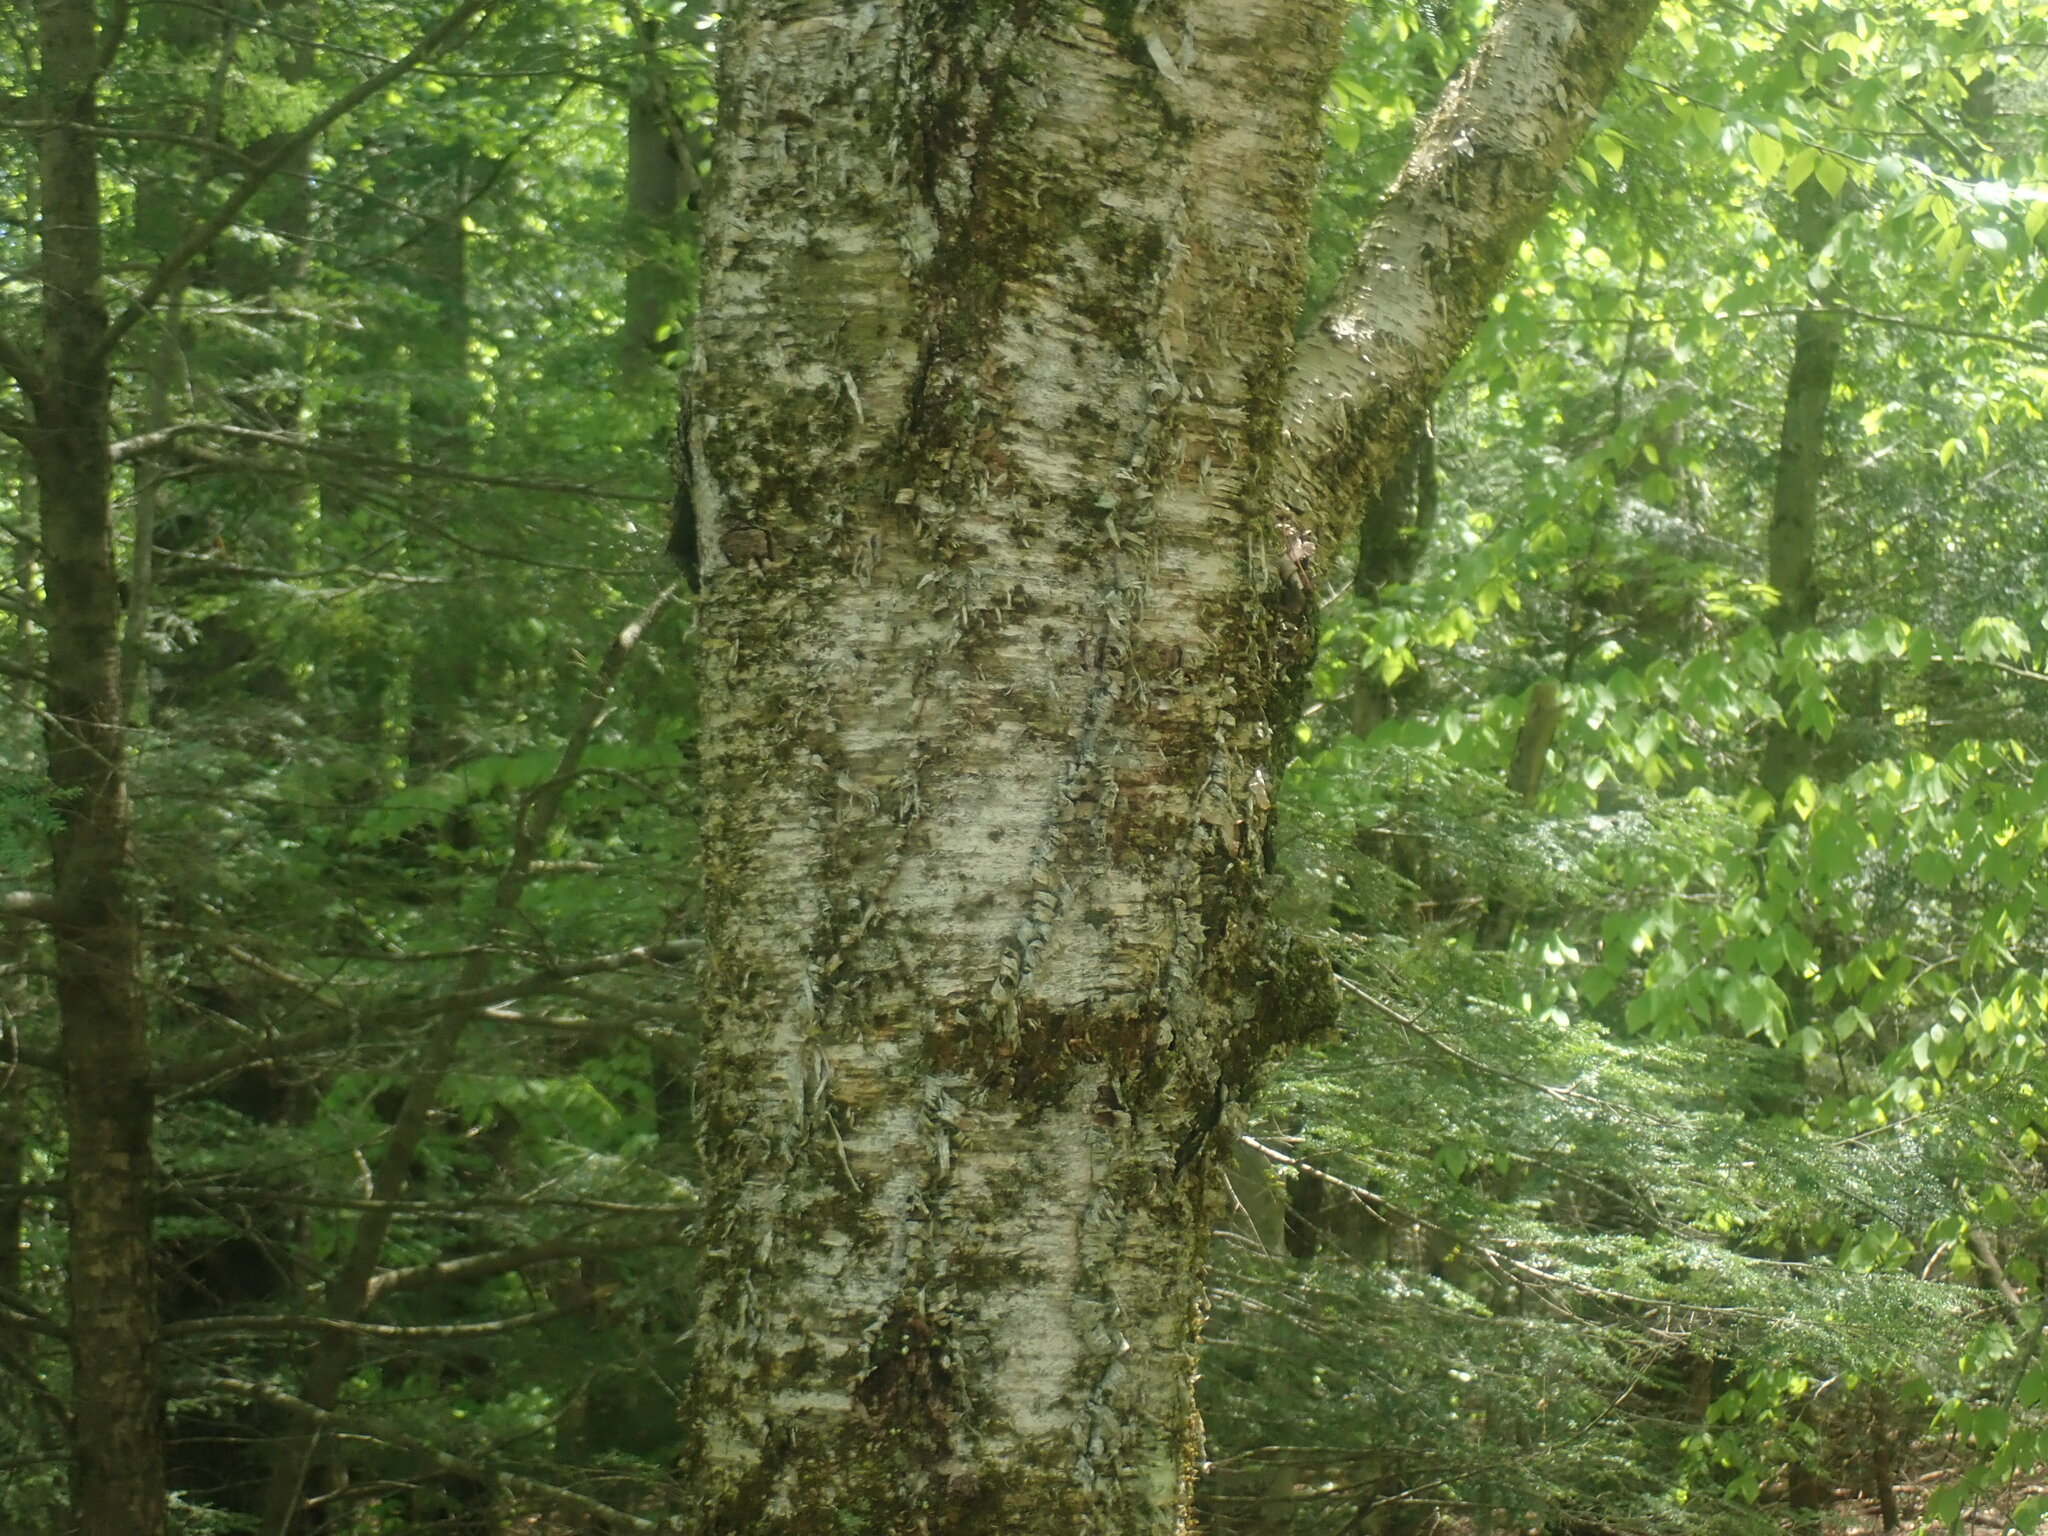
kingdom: Plantae
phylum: Tracheophyta
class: Magnoliopsida
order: Fagales
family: Betulaceae
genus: Betula
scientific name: Betula alleghaniensis
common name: Yellow birch
